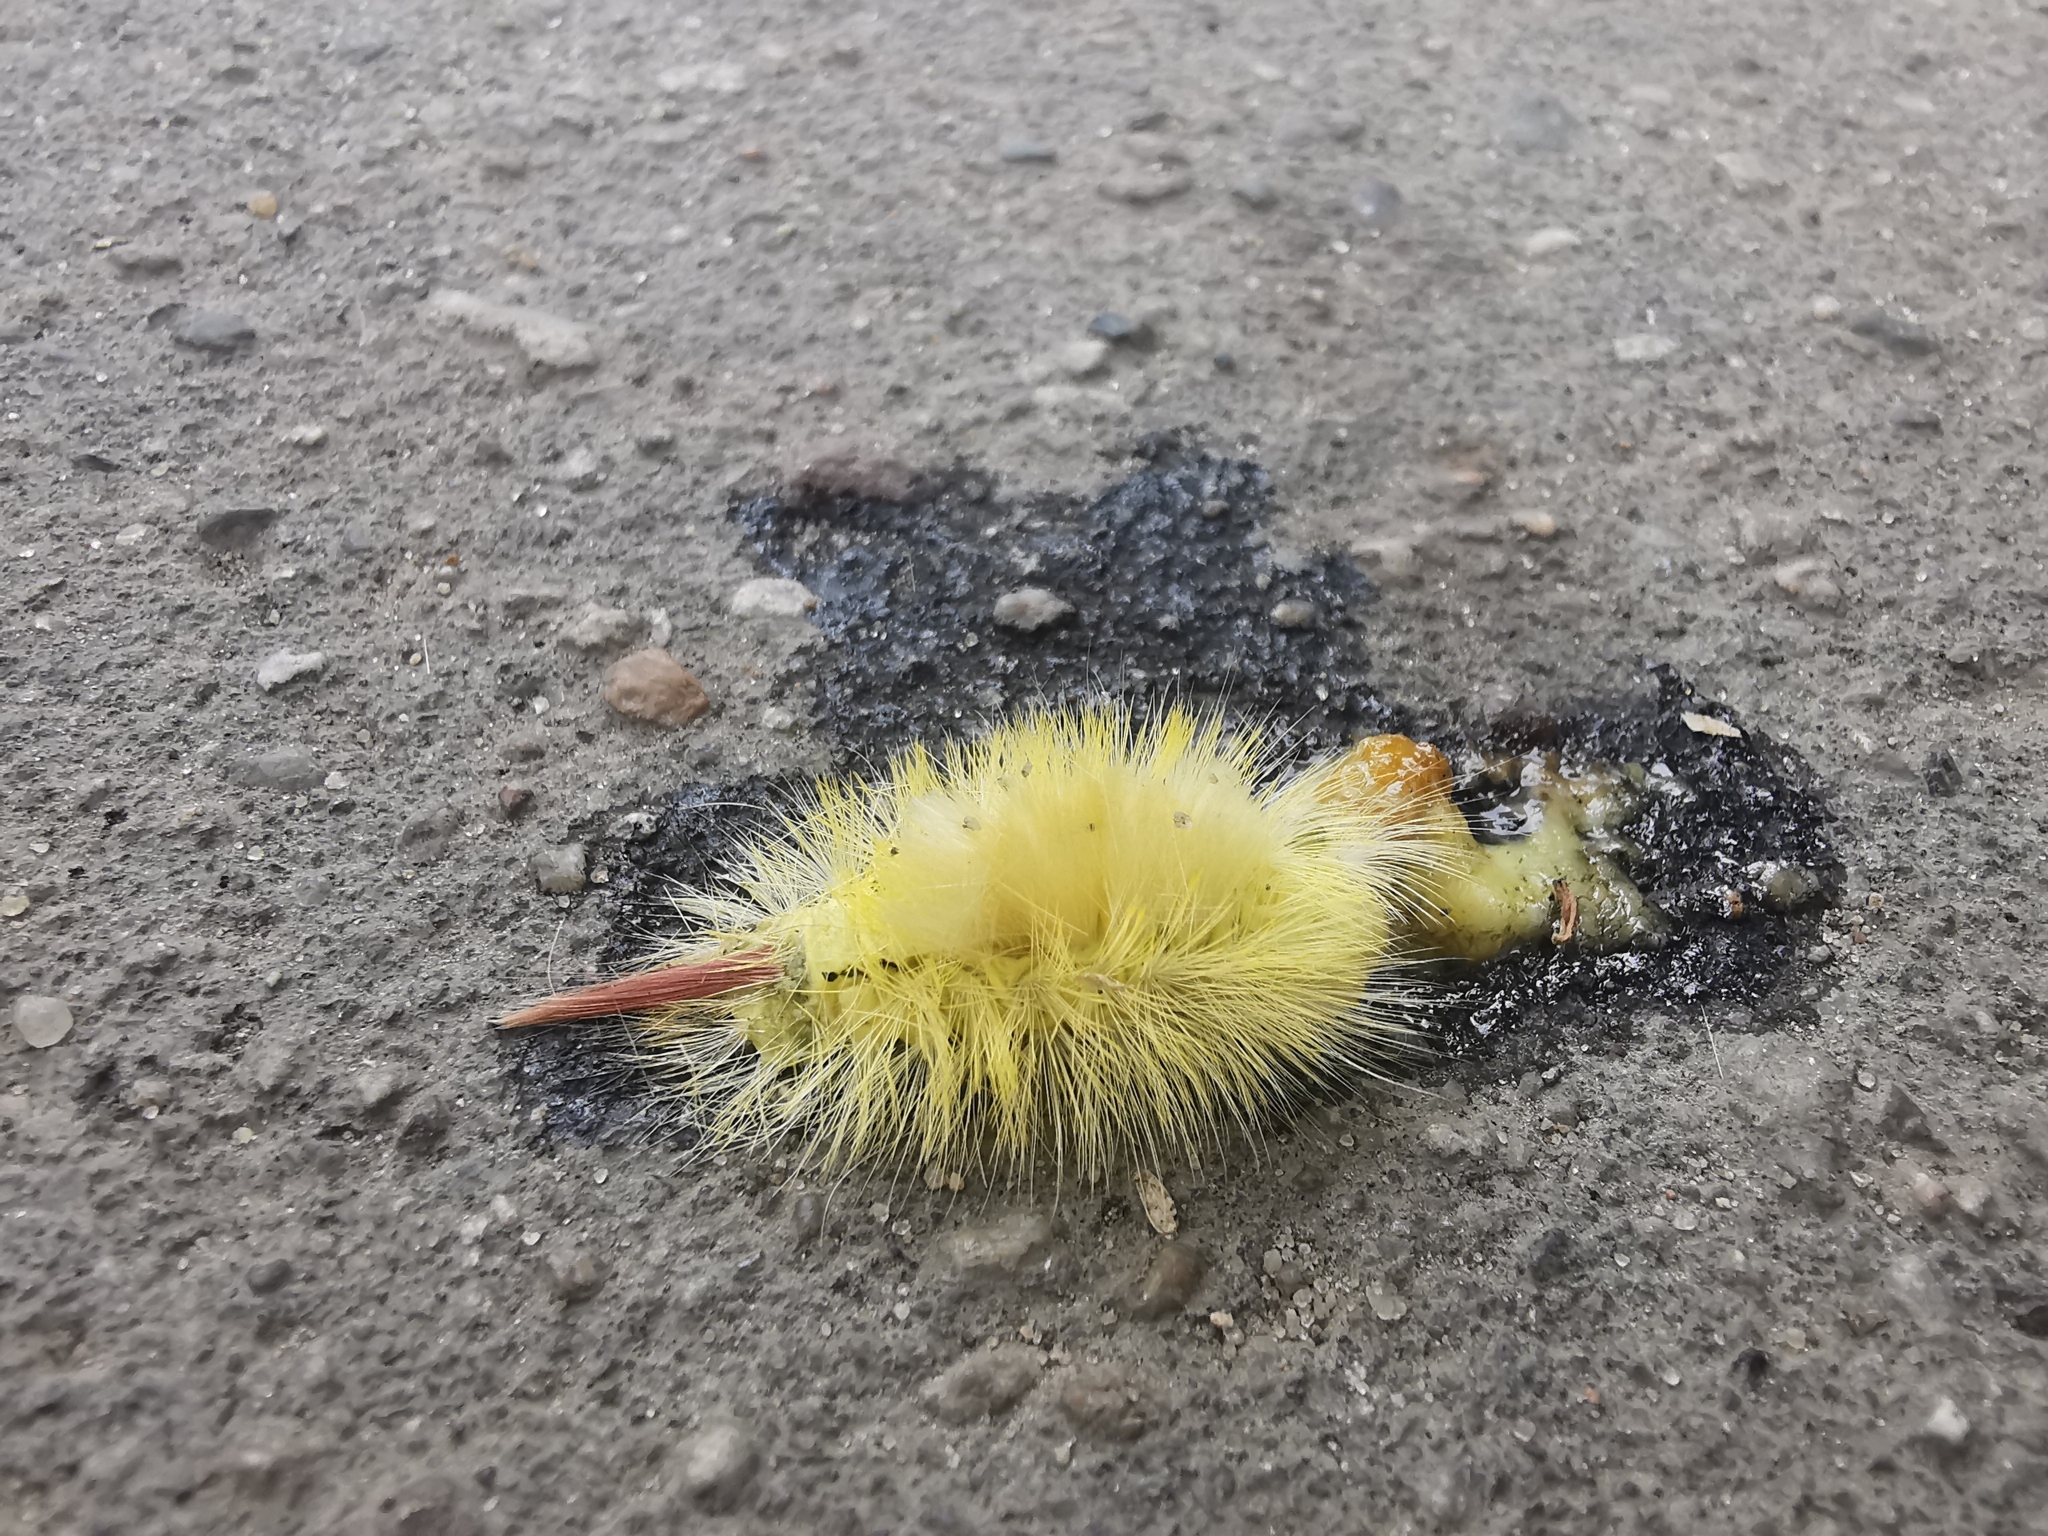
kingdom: Animalia
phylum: Arthropoda
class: Insecta
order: Lepidoptera
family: Erebidae
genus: Calliteara
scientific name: Calliteara pudibunda
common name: Pale tussock
